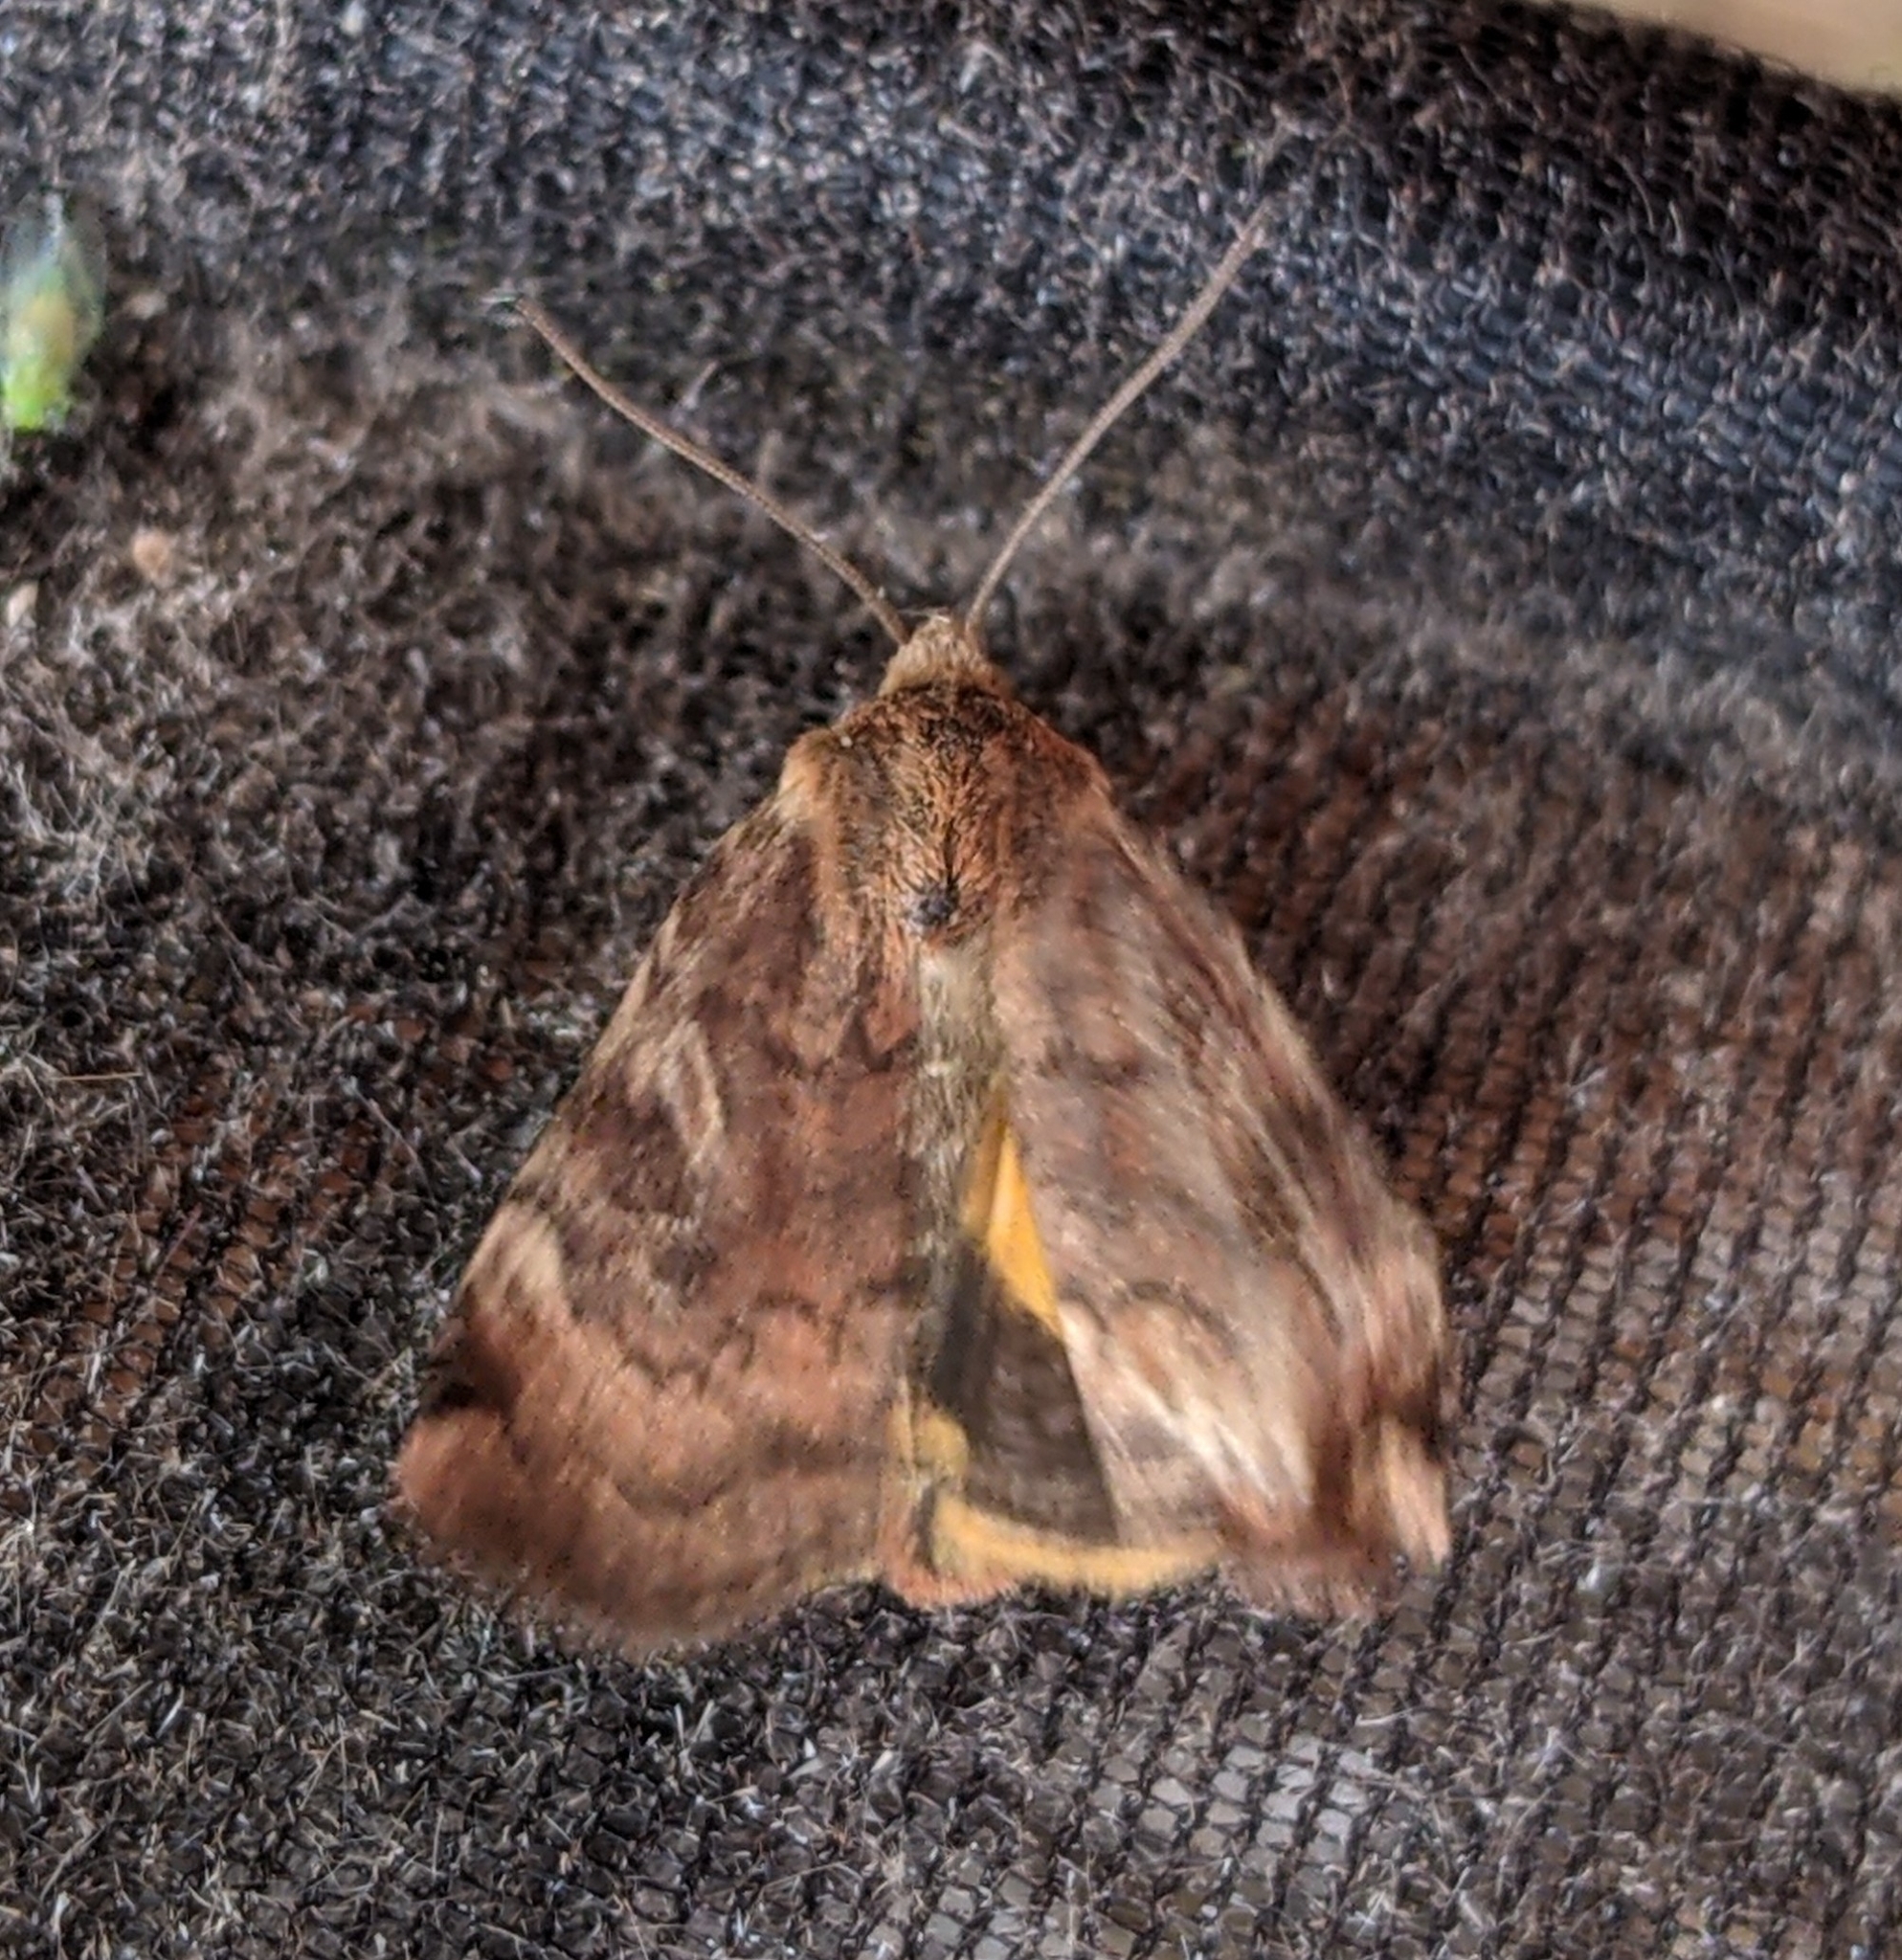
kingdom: Animalia
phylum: Arthropoda
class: Insecta
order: Lepidoptera
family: Noctuidae
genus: Cryptocala
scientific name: Cryptocala acadiensis
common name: Catocaline dart
